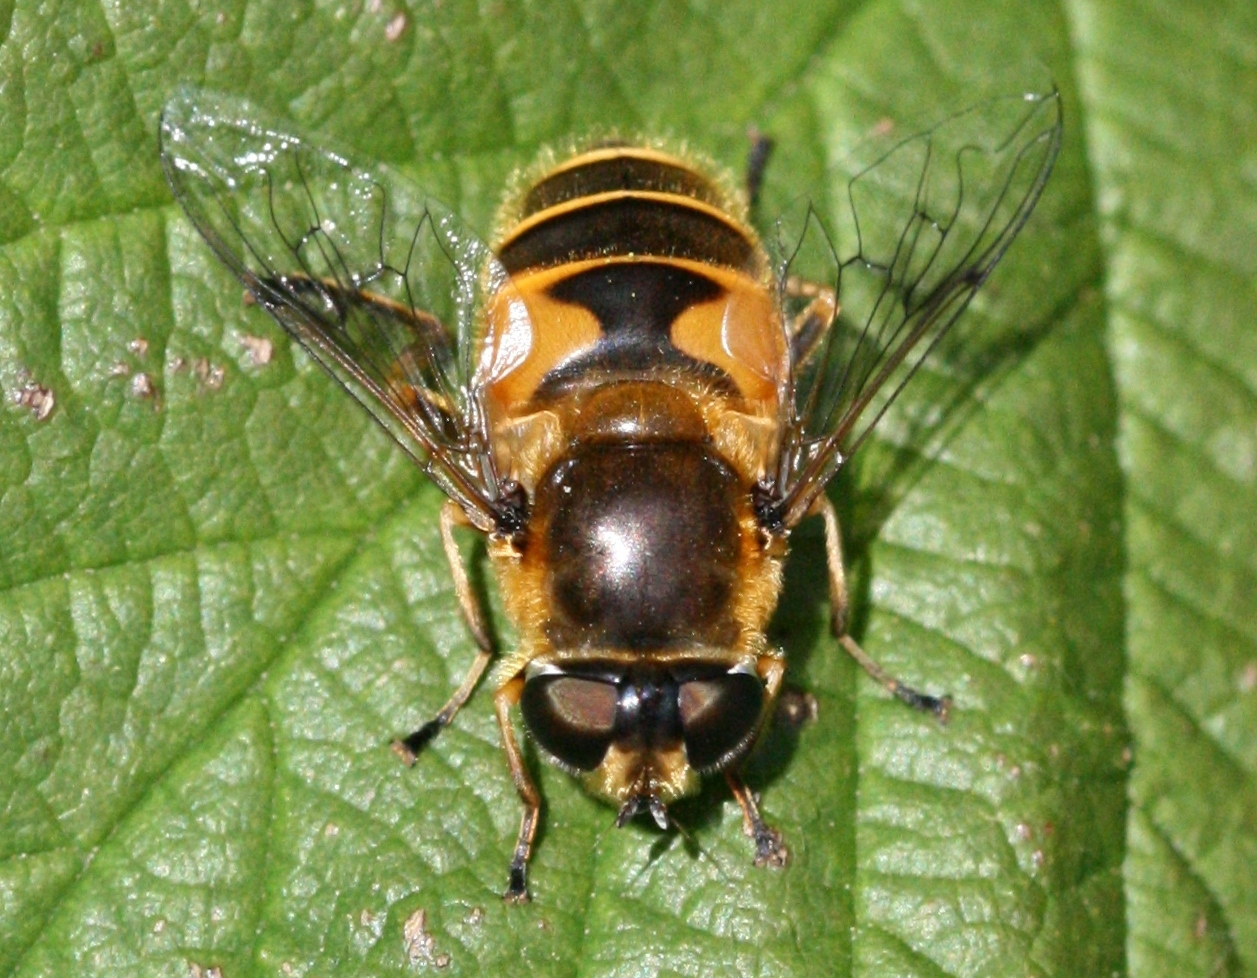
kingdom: Animalia
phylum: Arthropoda
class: Insecta
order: Diptera
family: Syrphidae
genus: Cheilosia
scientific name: Cheilosia morio
